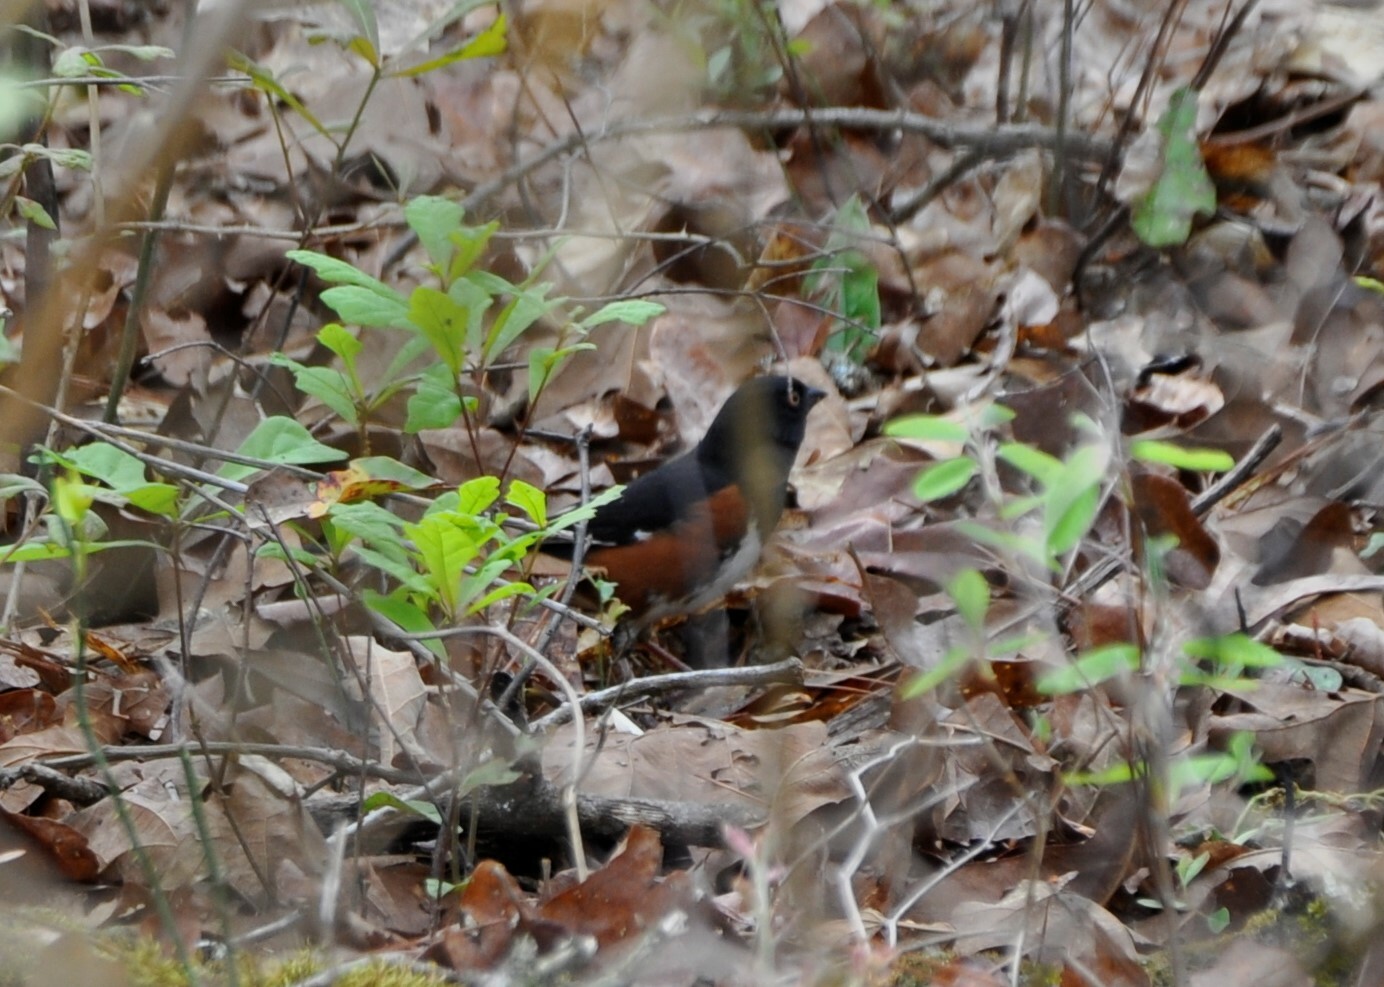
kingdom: Animalia
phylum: Chordata
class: Aves
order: Passeriformes
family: Passerellidae
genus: Pipilo
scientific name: Pipilo erythrophthalmus
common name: Eastern towhee
